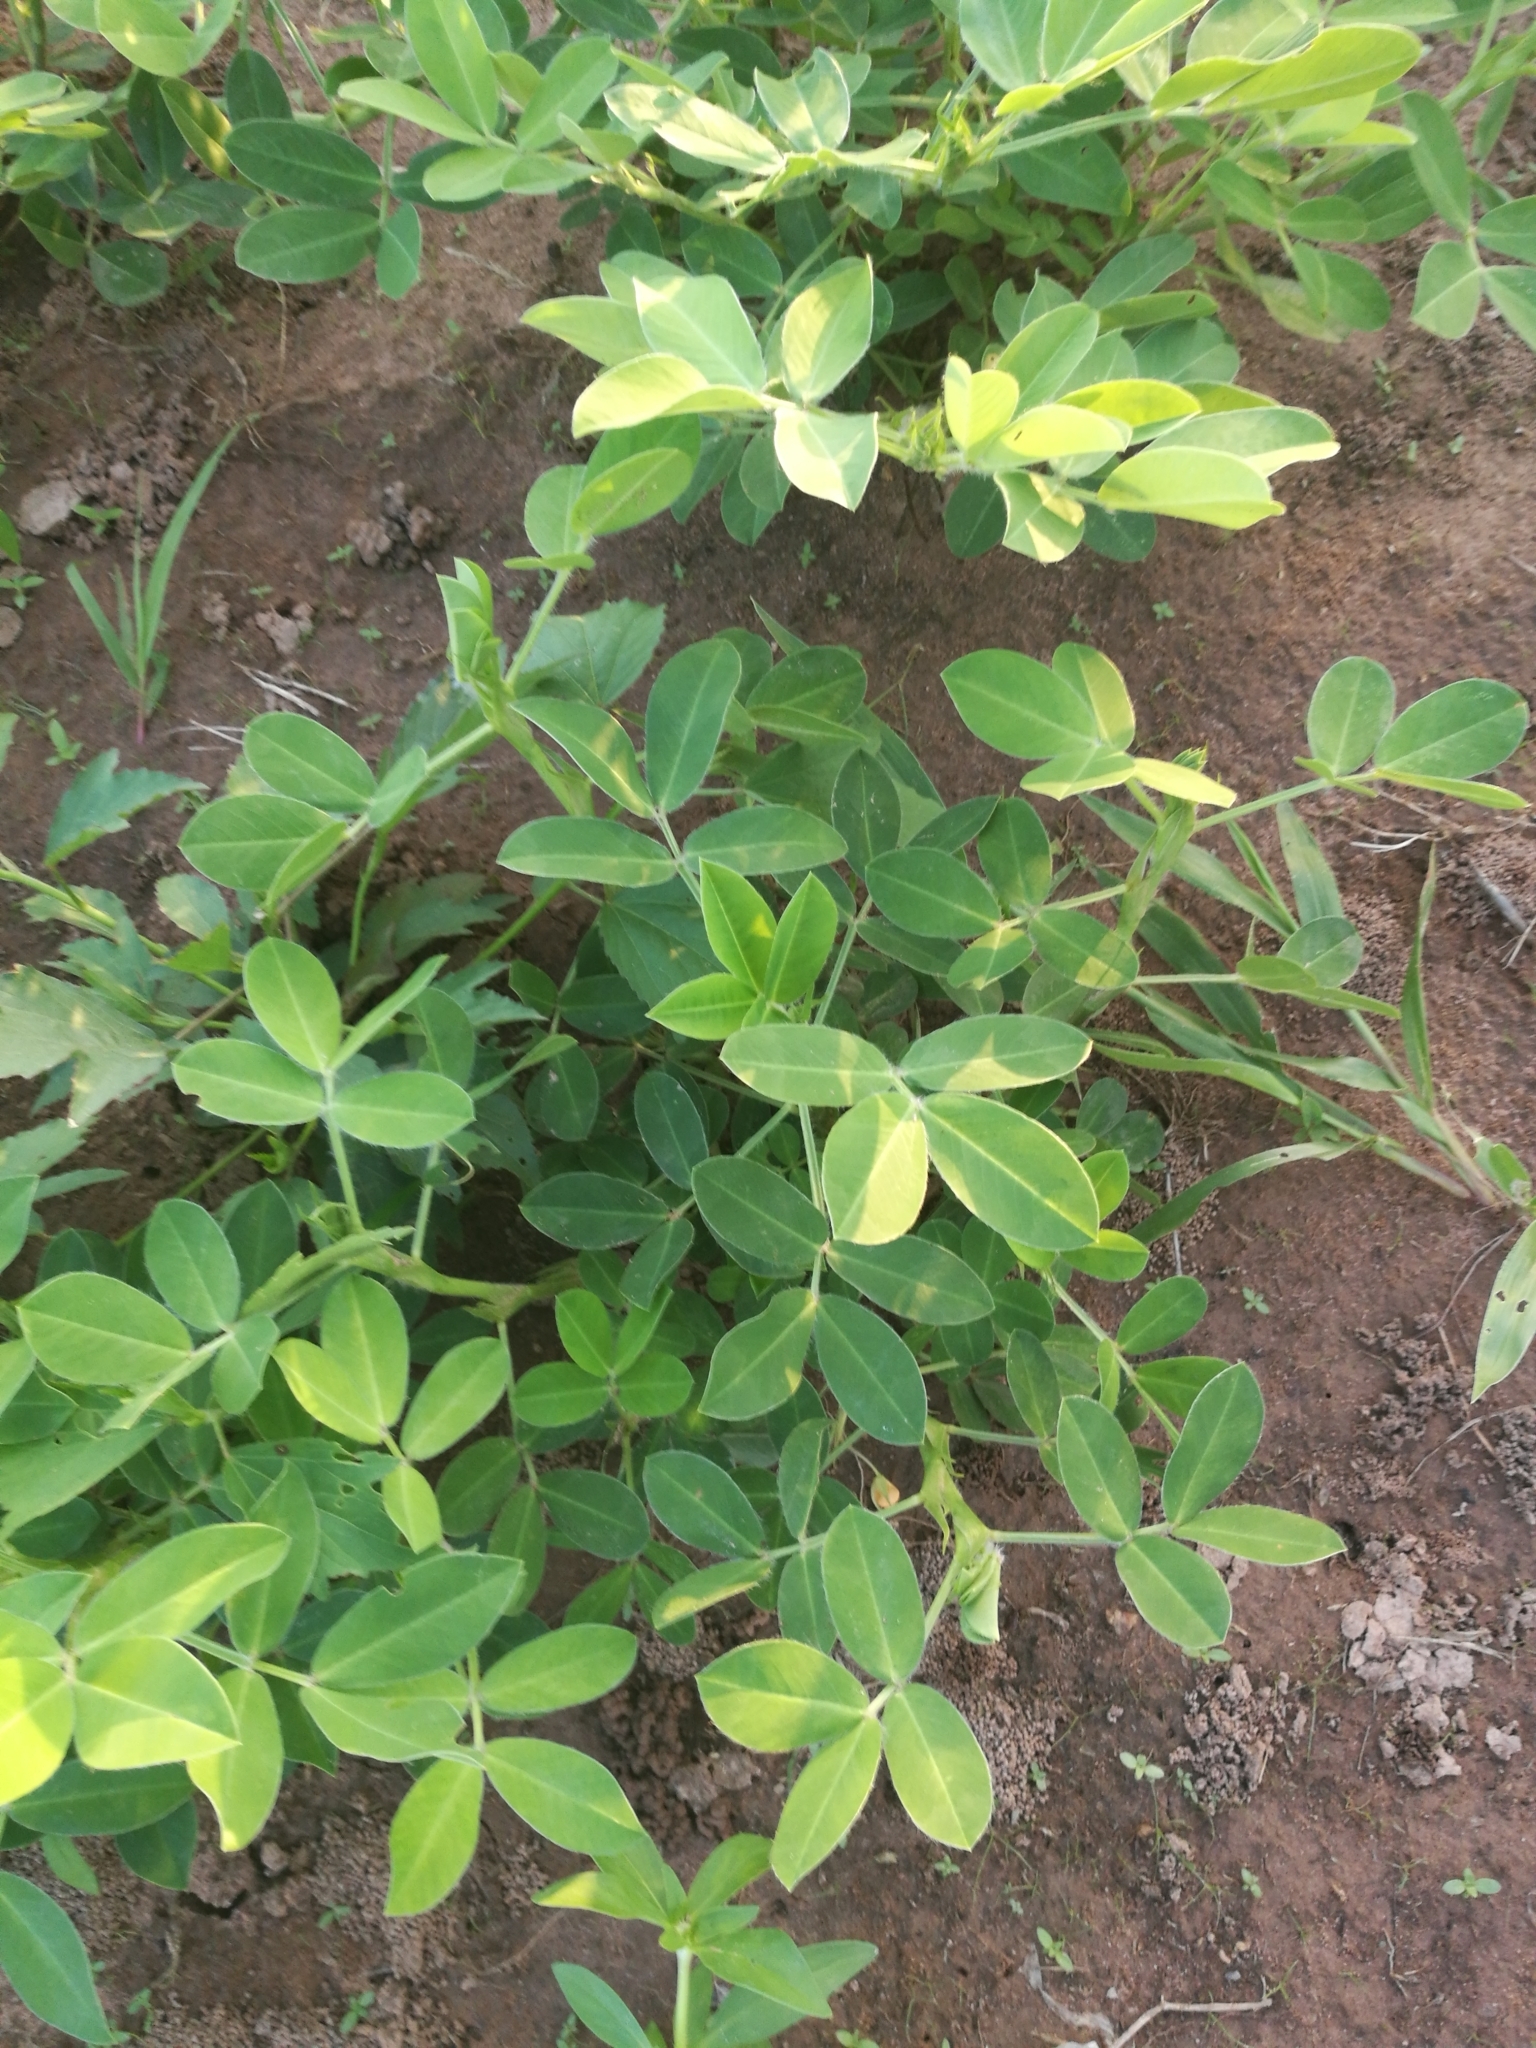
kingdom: Plantae
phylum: Tracheophyta
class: Magnoliopsida
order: Fabales
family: Fabaceae
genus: Arachis
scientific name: Arachis hypogaea
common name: Peanut
